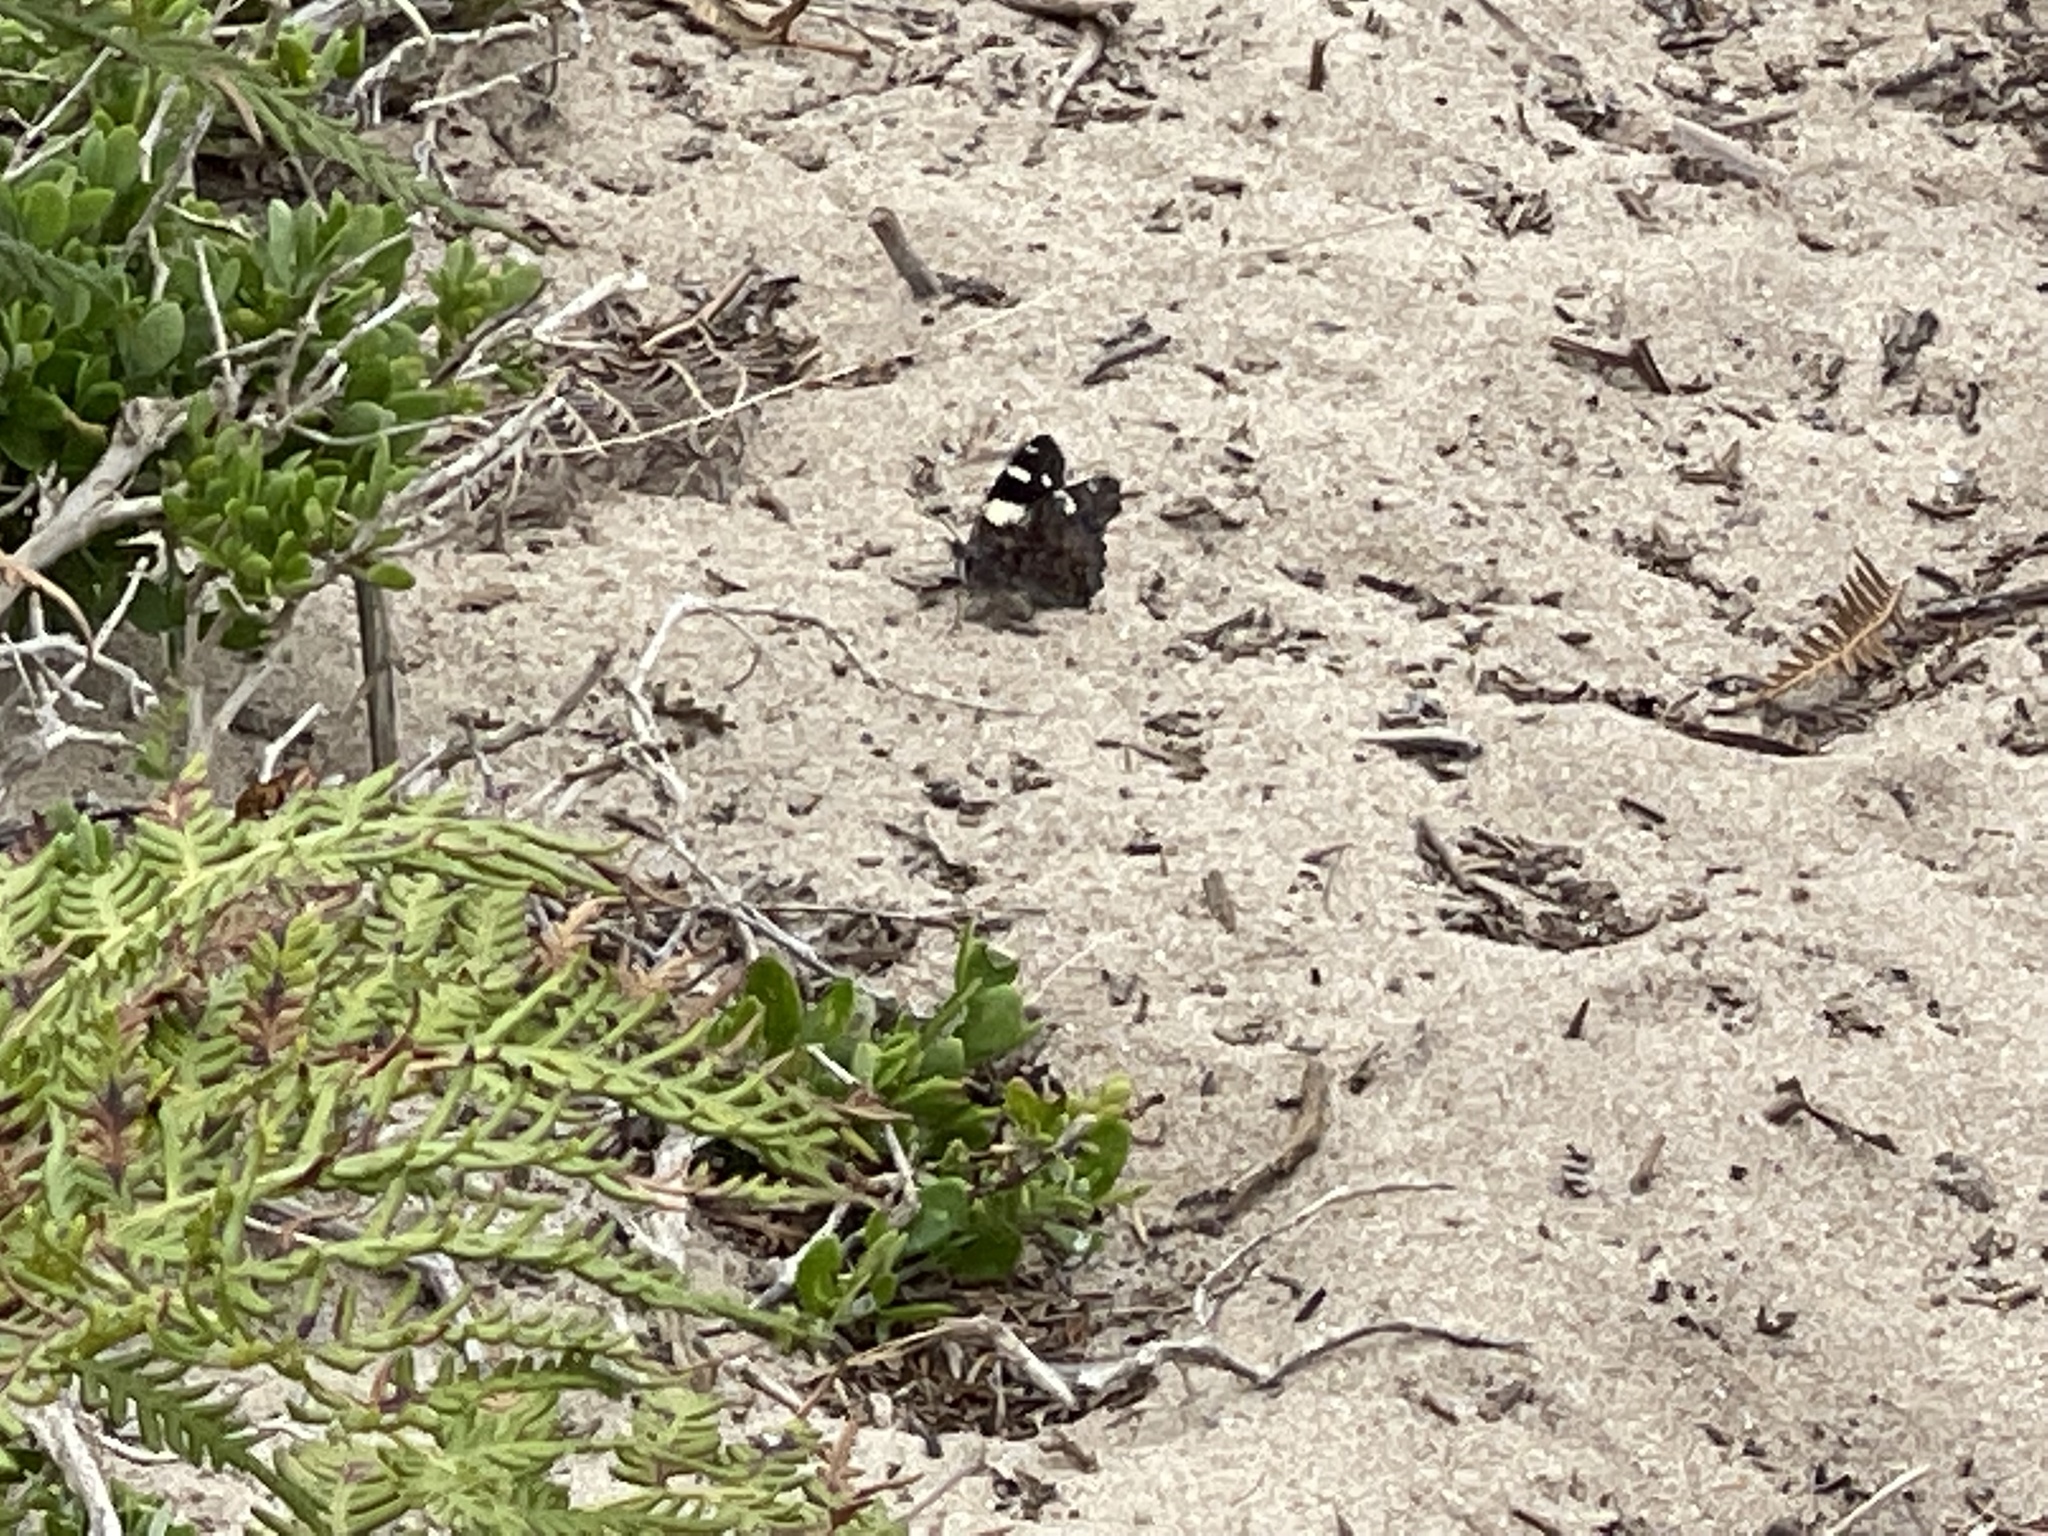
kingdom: Animalia
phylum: Arthropoda
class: Insecta
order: Lepidoptera
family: Nymphalidae
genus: Vanessa
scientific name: Vanessa itea
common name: Yellow admiral
